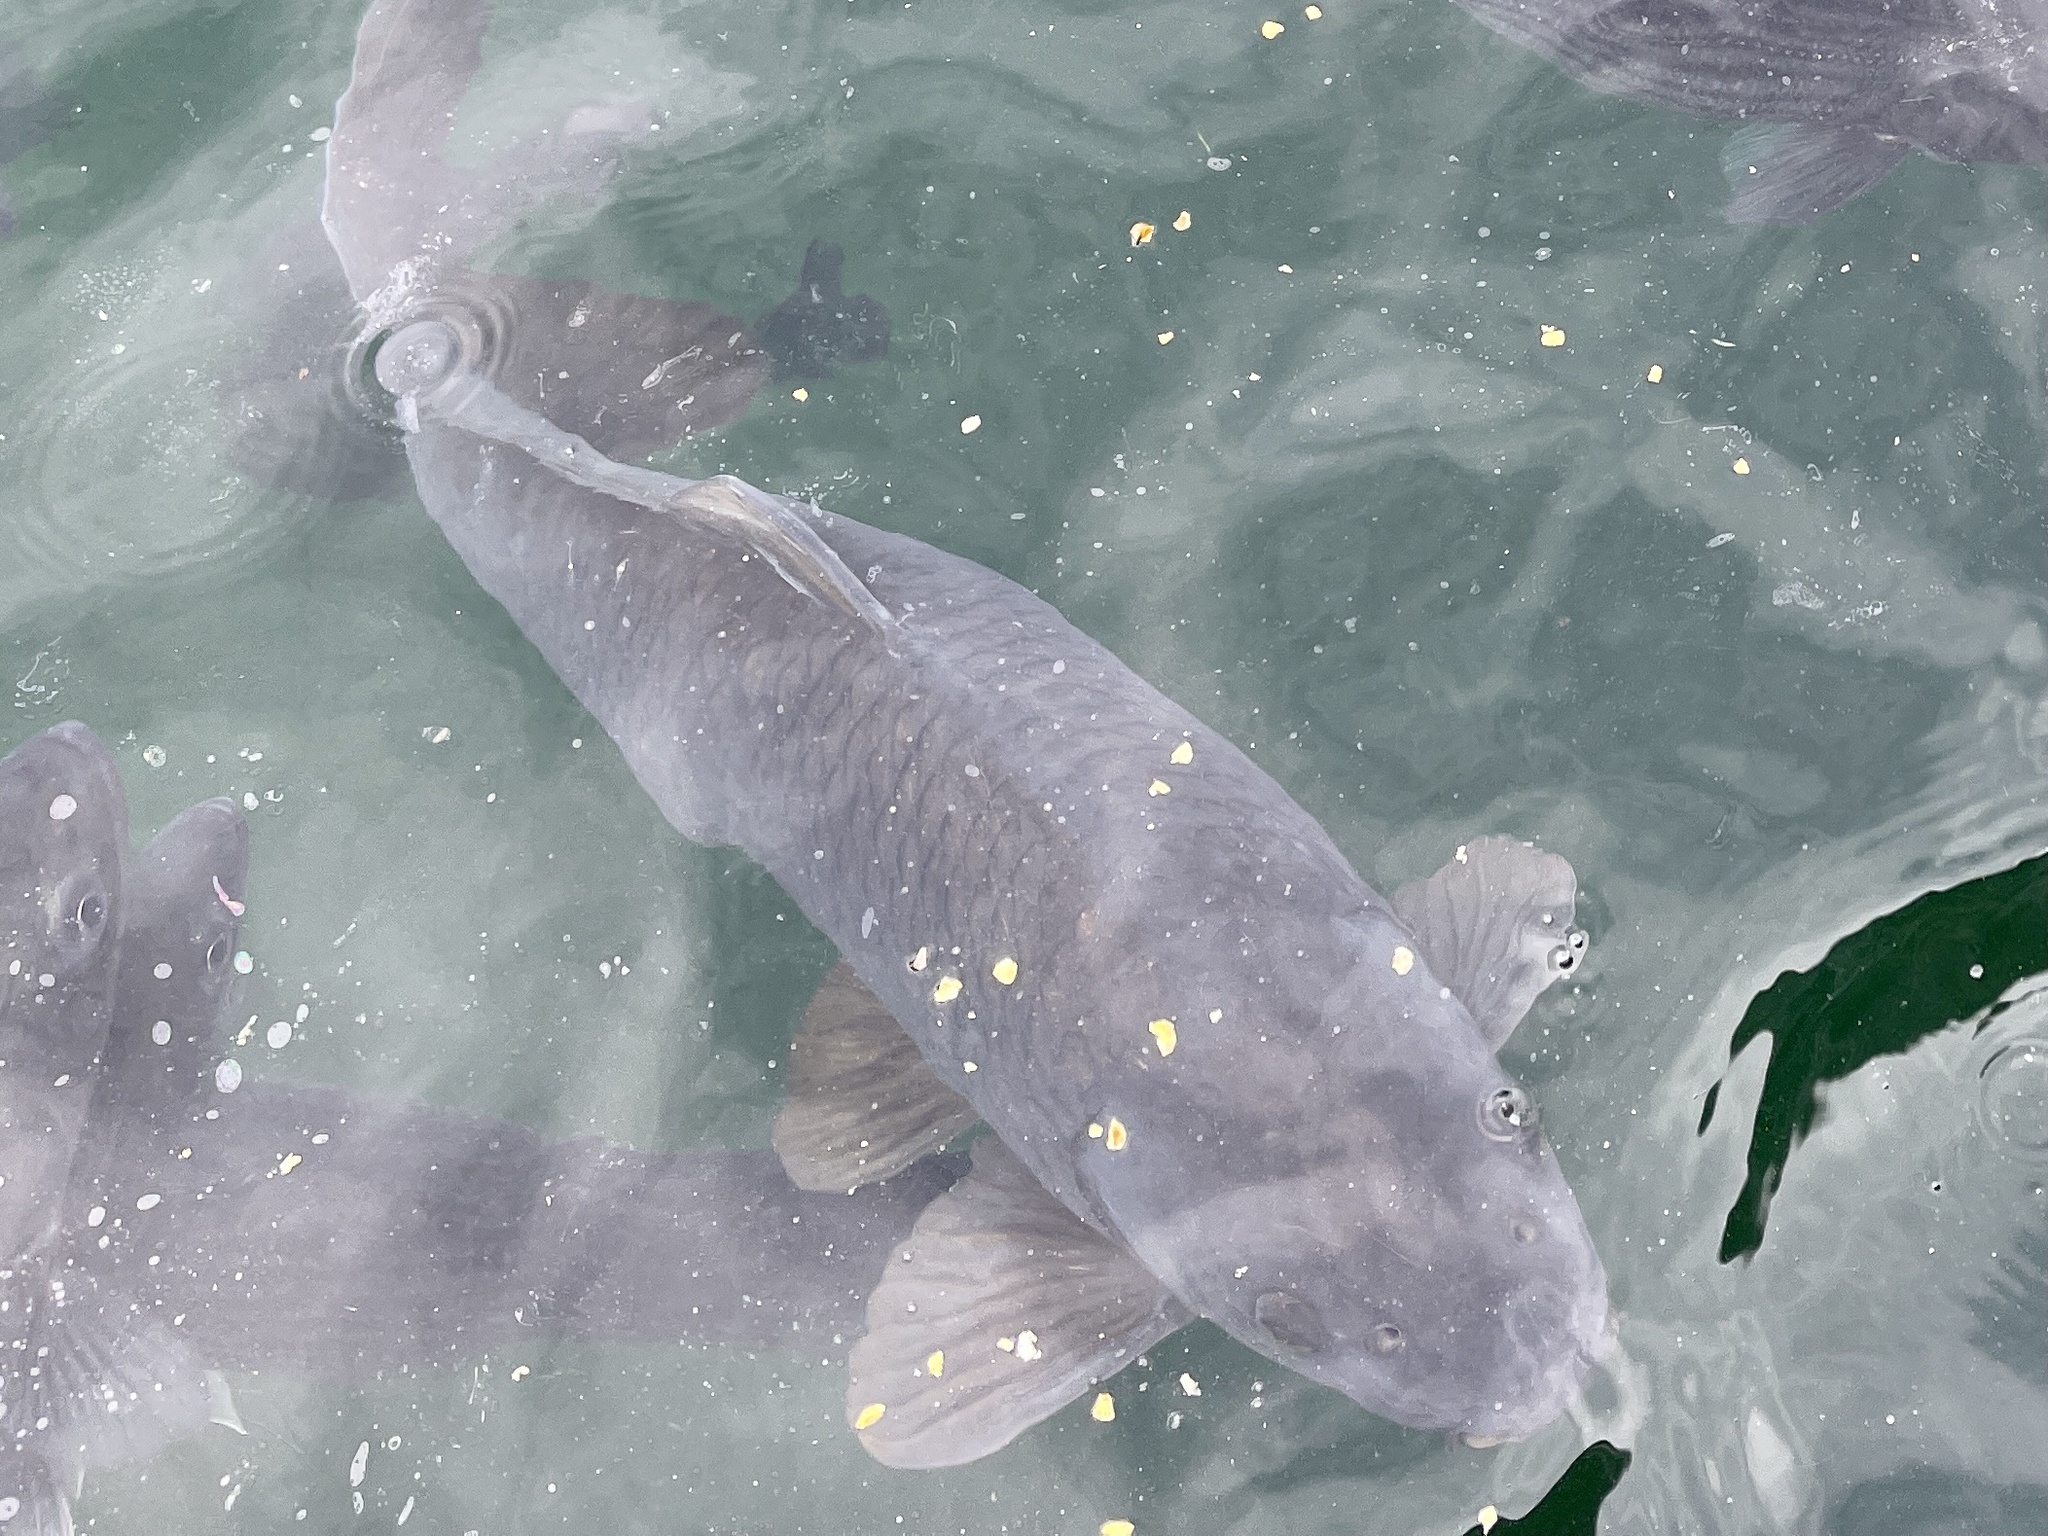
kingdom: Animalia
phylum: Chordata
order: Cypriniformes
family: Cyprinidae
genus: Cyprinus
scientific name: Cyprinus carpio
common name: Common carp
